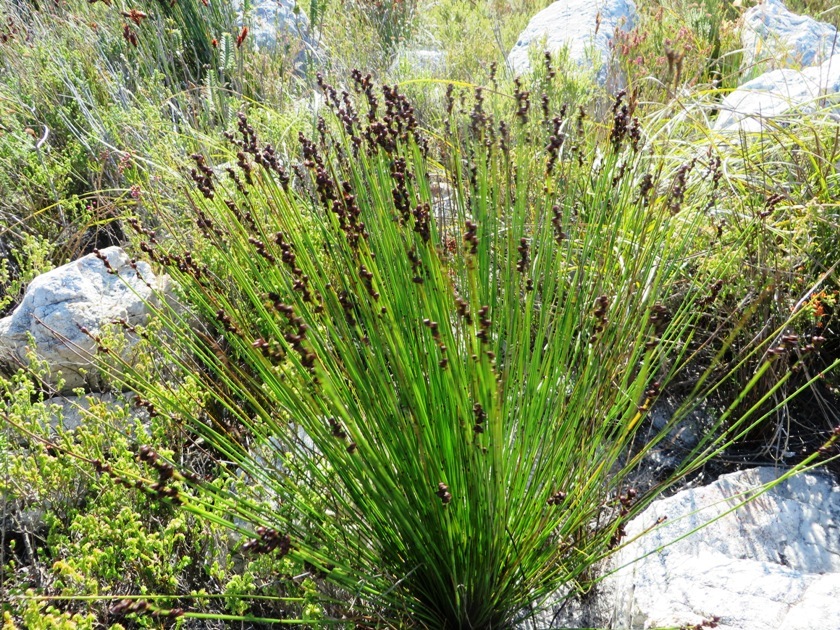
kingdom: Plantae
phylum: Tracheophyta
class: Liliopsida
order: Poales
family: Restionaceae
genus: Elegia
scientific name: Elegia ebracteata
